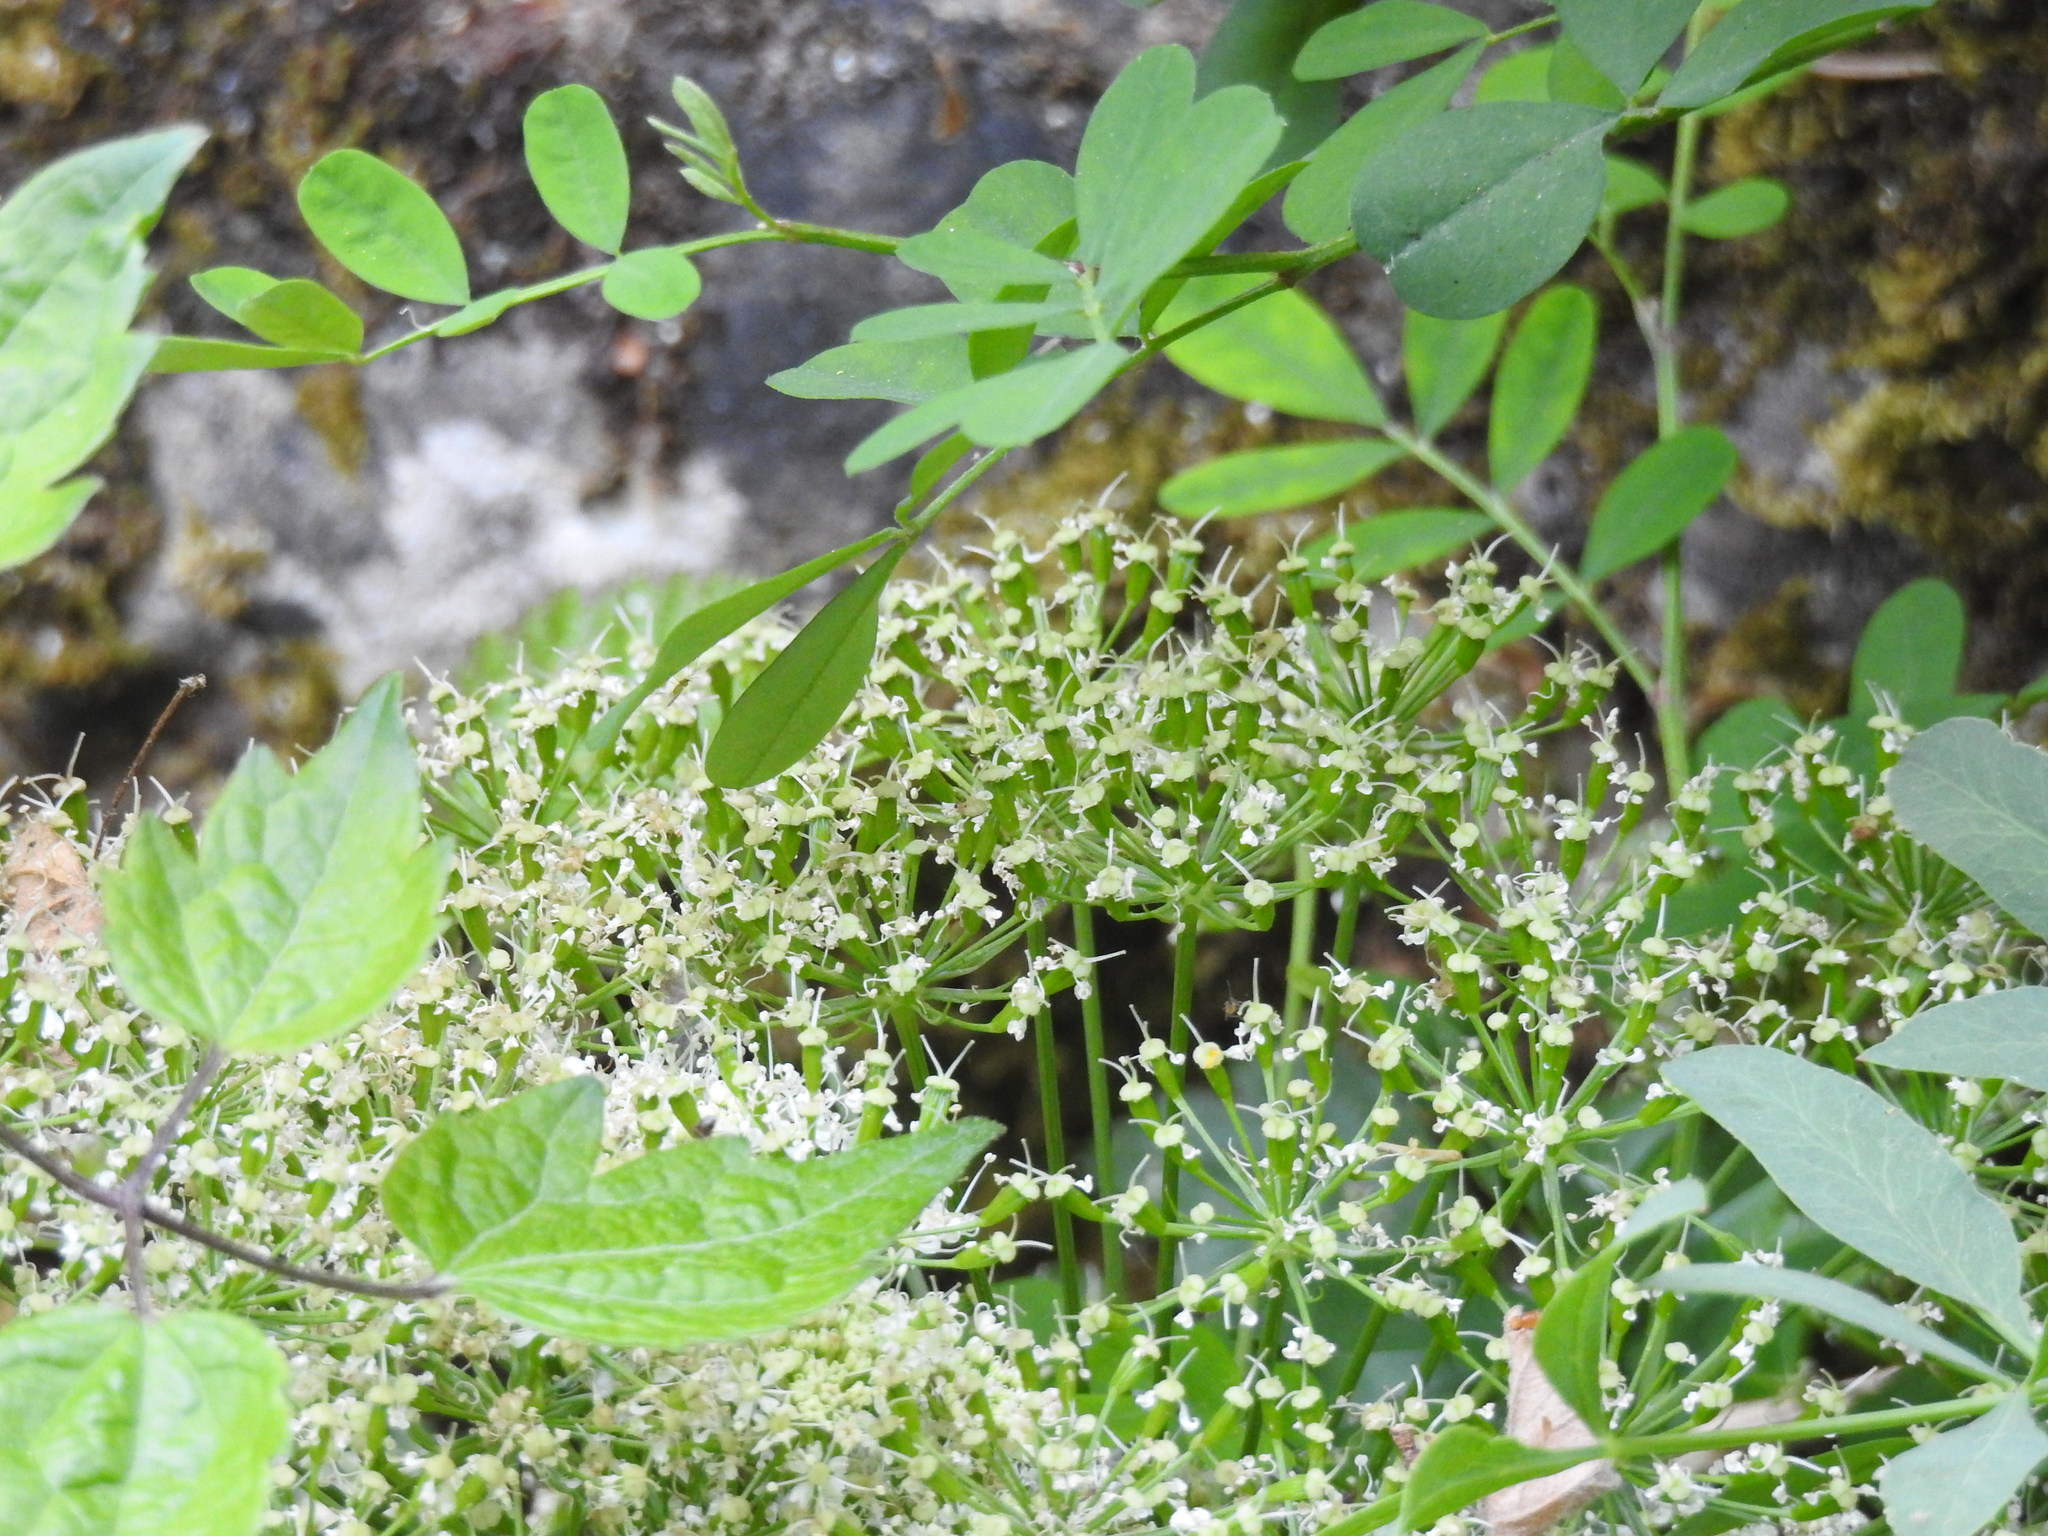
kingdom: Plantae
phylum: Tracheophyta
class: Magnoliopsida
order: Apiales
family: Apiaceae
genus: Siler
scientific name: Siler montanum
